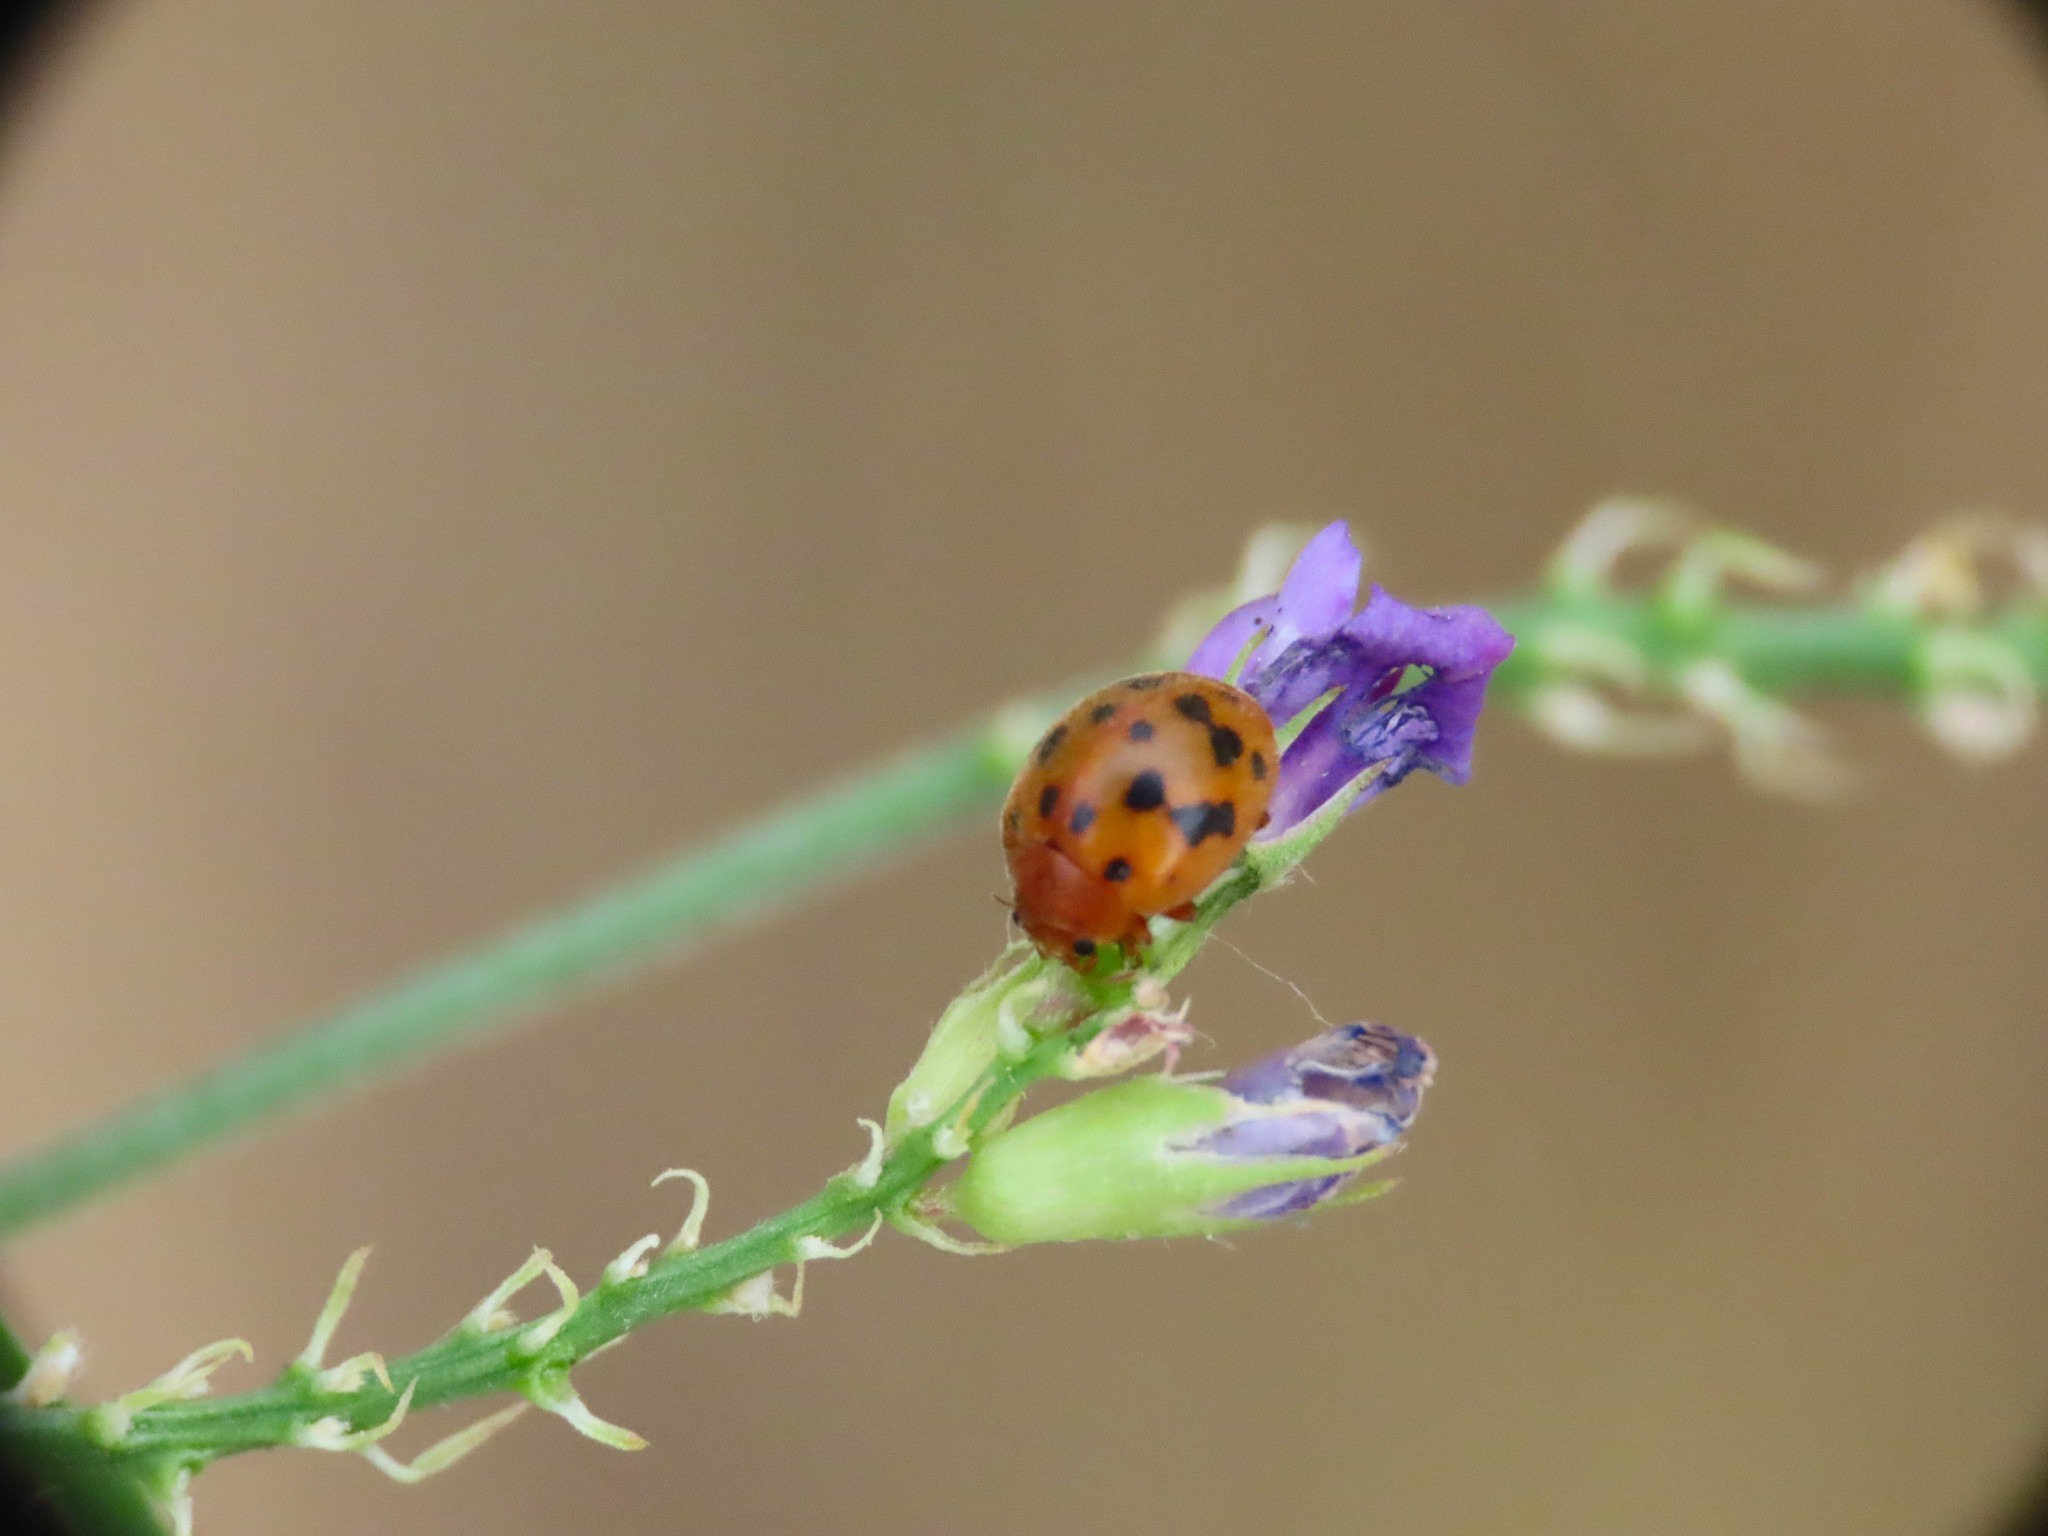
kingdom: Animalia
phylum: Arthropoda
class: Insecta
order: Coleoptera
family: Coccinellidae
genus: Subcoccinella
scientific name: Subcoccinella vigintiquatuorpunctata
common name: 24-spot ladybird
